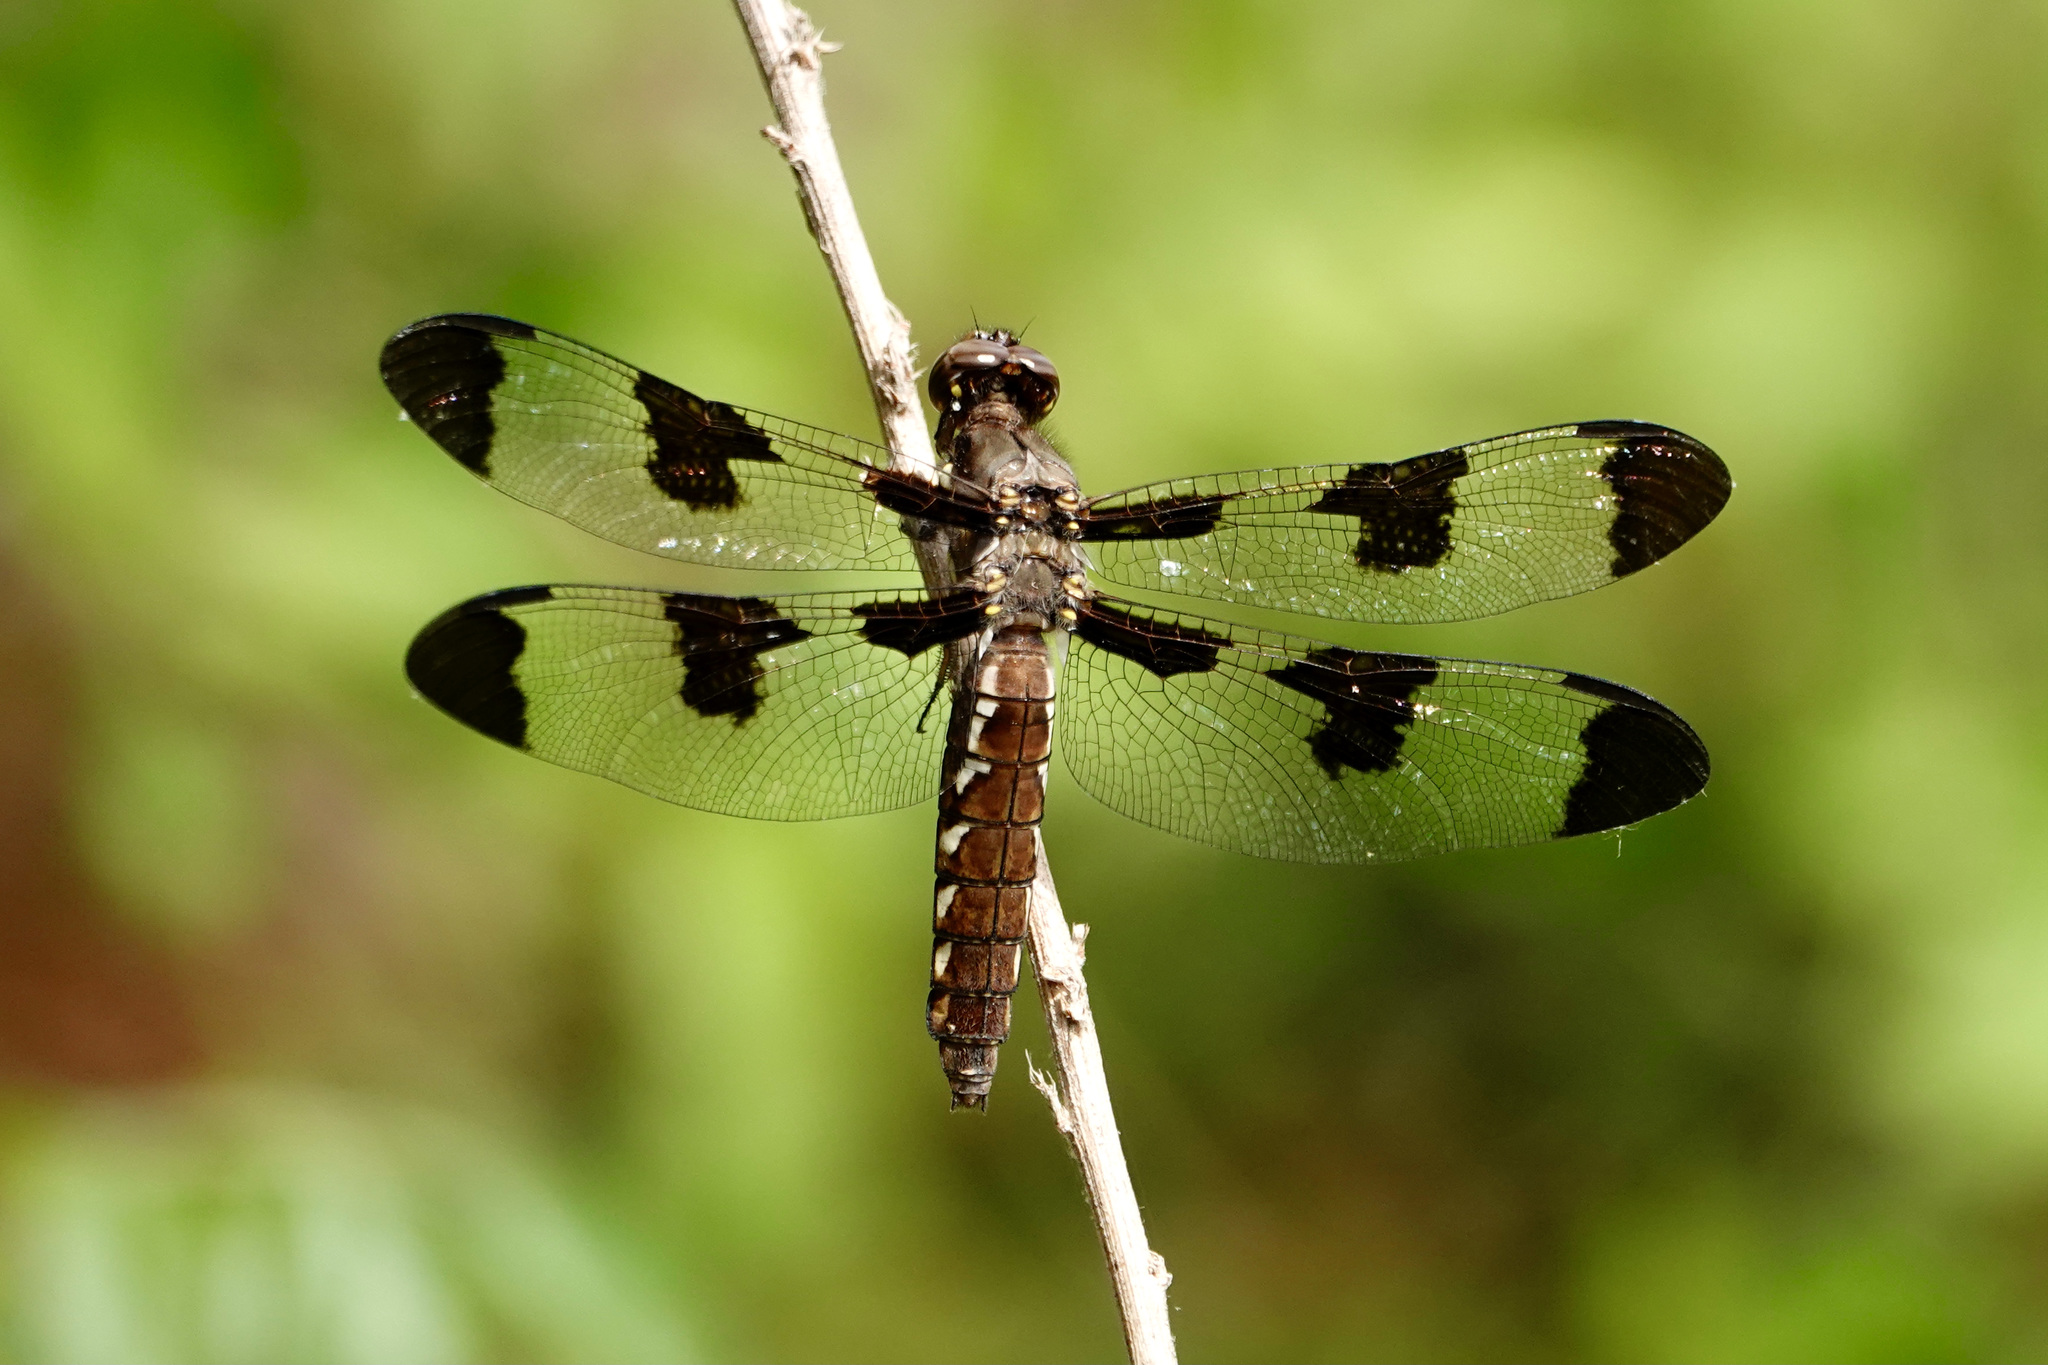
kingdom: Animalia
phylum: Arthropoda
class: Insecta
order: Odonata
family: Libellulidae
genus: Plathemis
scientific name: Plathemis lydia
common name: Common whitetail
